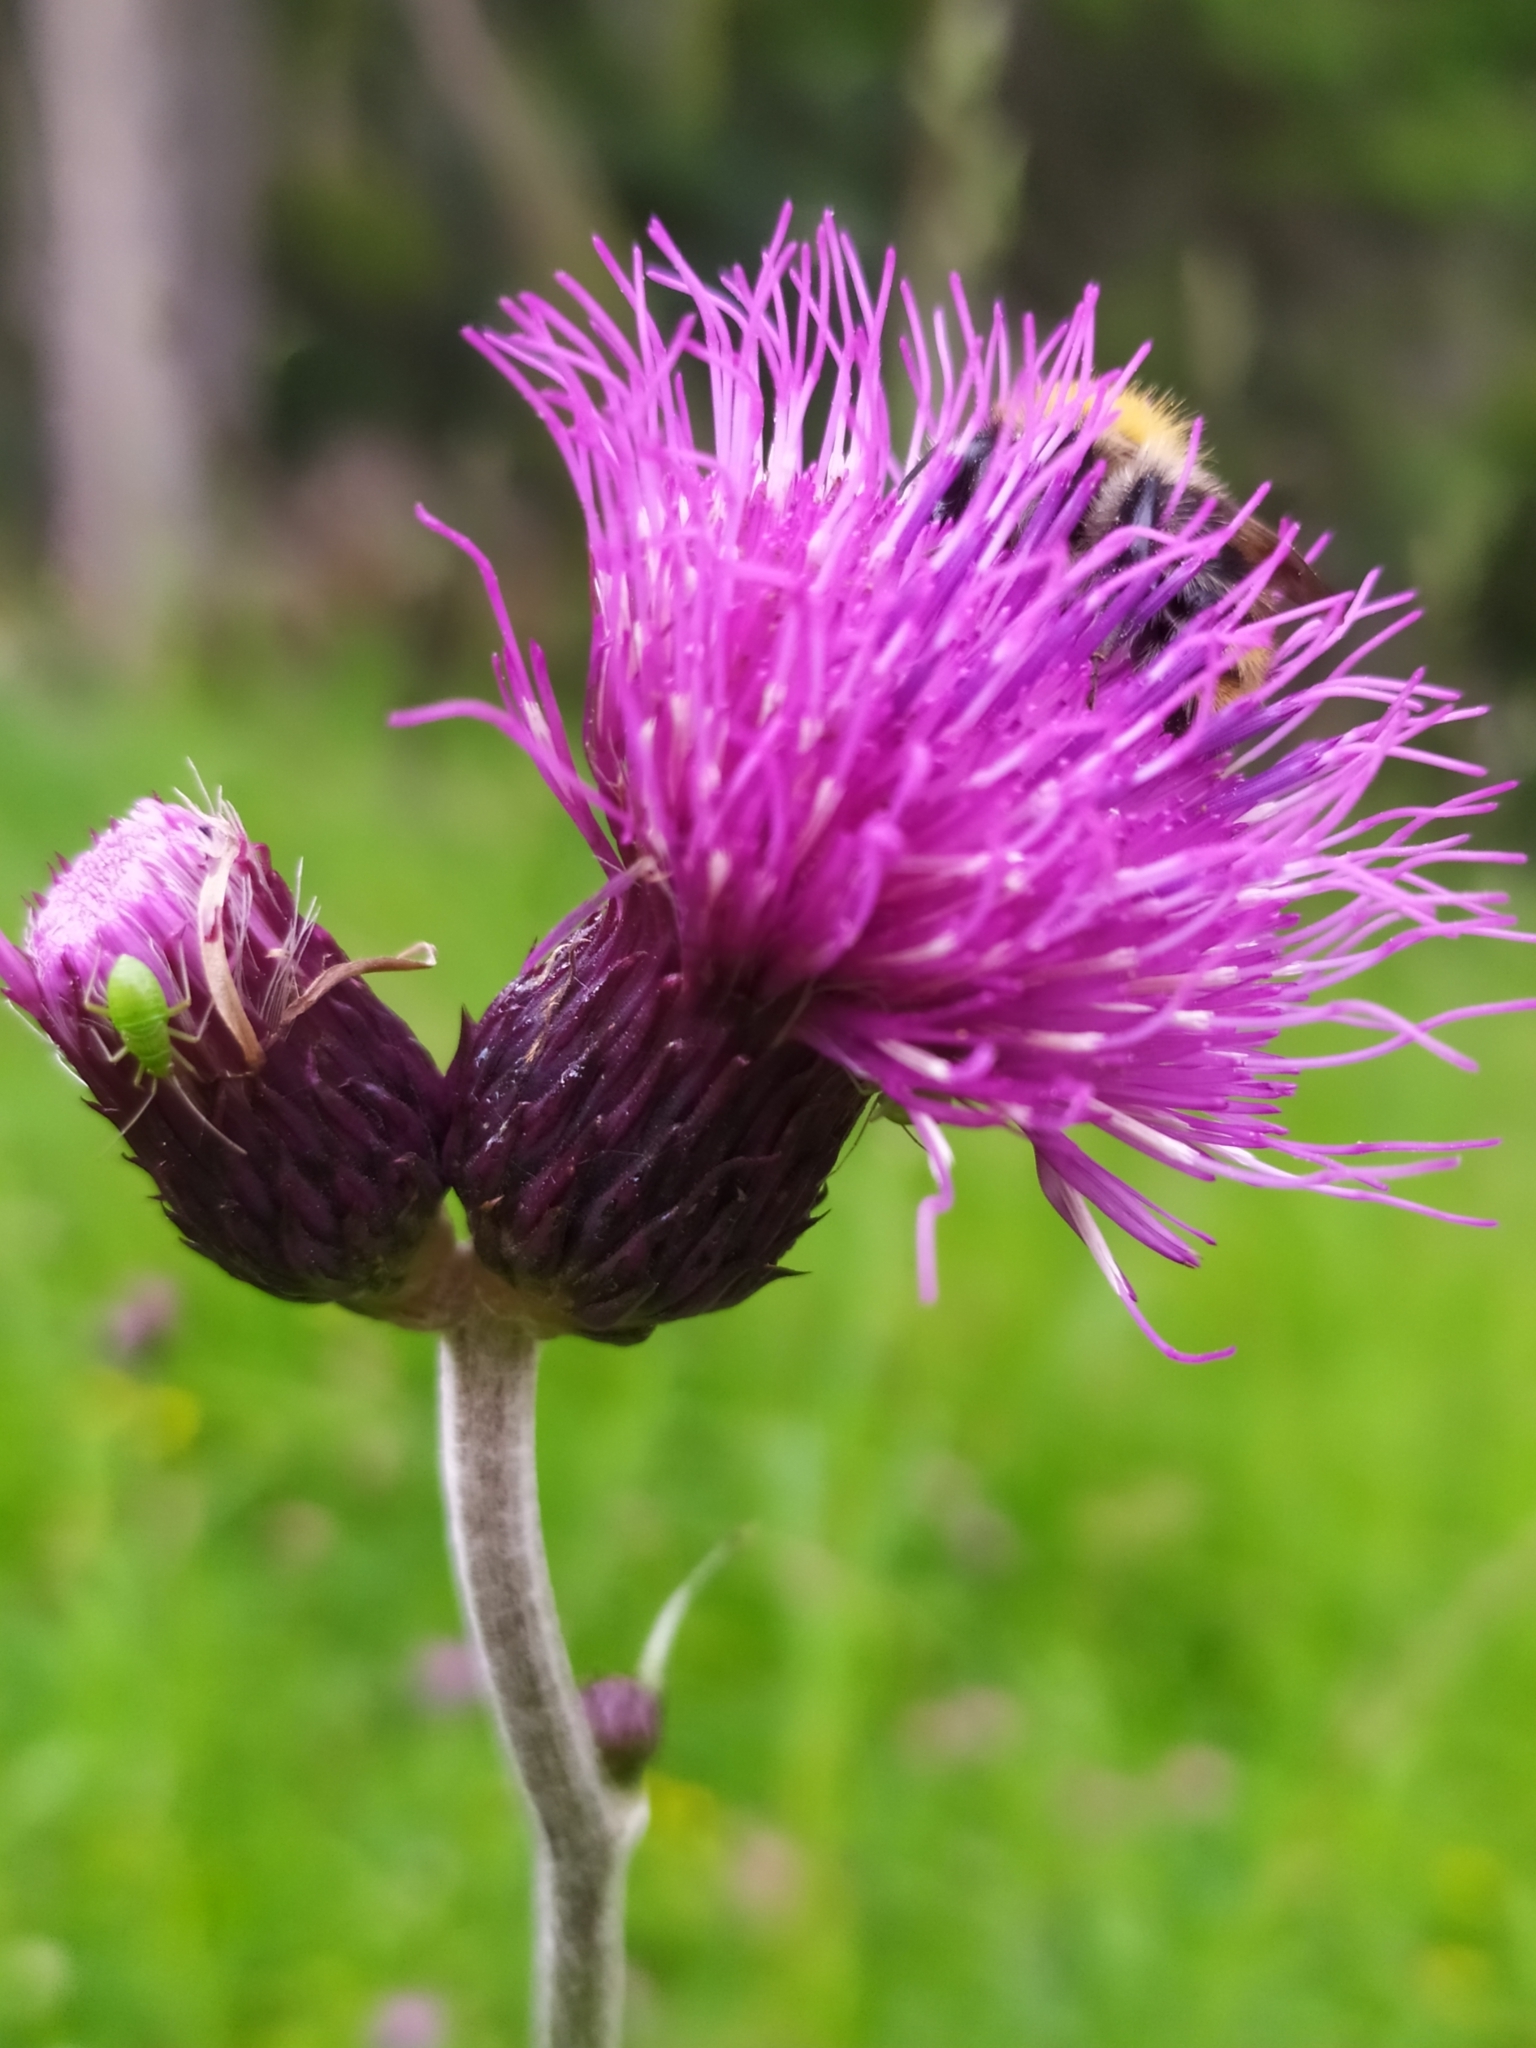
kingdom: Plantae
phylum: Tracheophyta
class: Magnoliopsida
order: Asterales
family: Asteraceae
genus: Cirsium
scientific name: Cirsium rivulare
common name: Brook thistle
